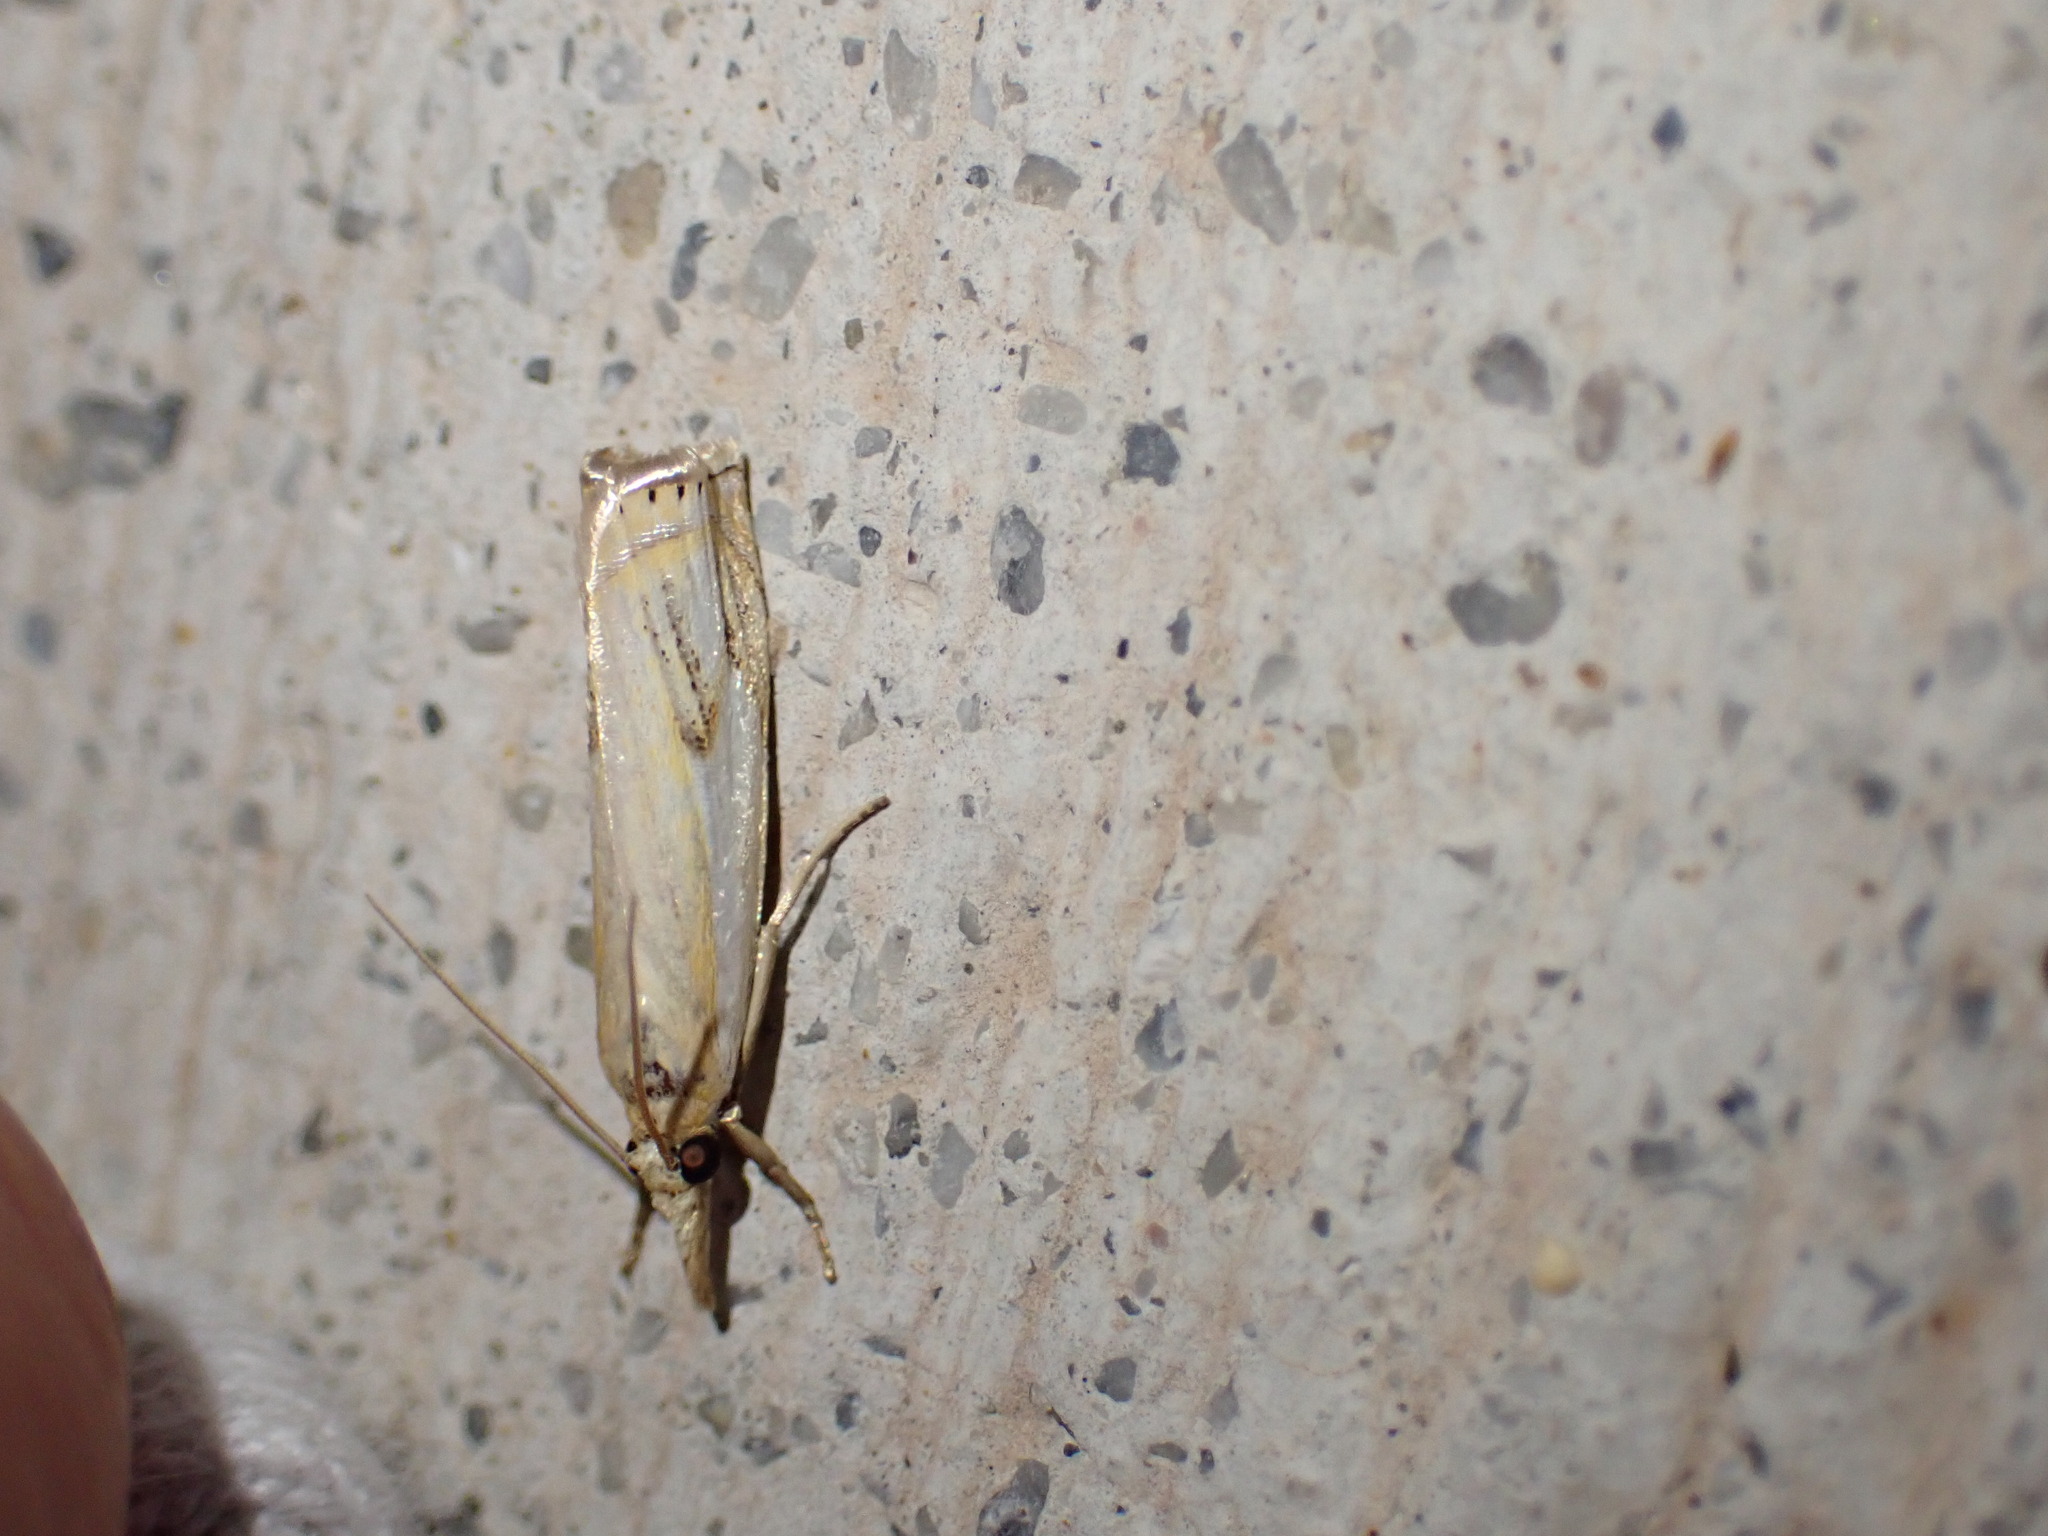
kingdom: Animalia
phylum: Arthropoda
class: Insecta
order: Lepidoptera
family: Crambidae
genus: Crambus
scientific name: Crambus agitatellus
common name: Double-banded grass-veneer
